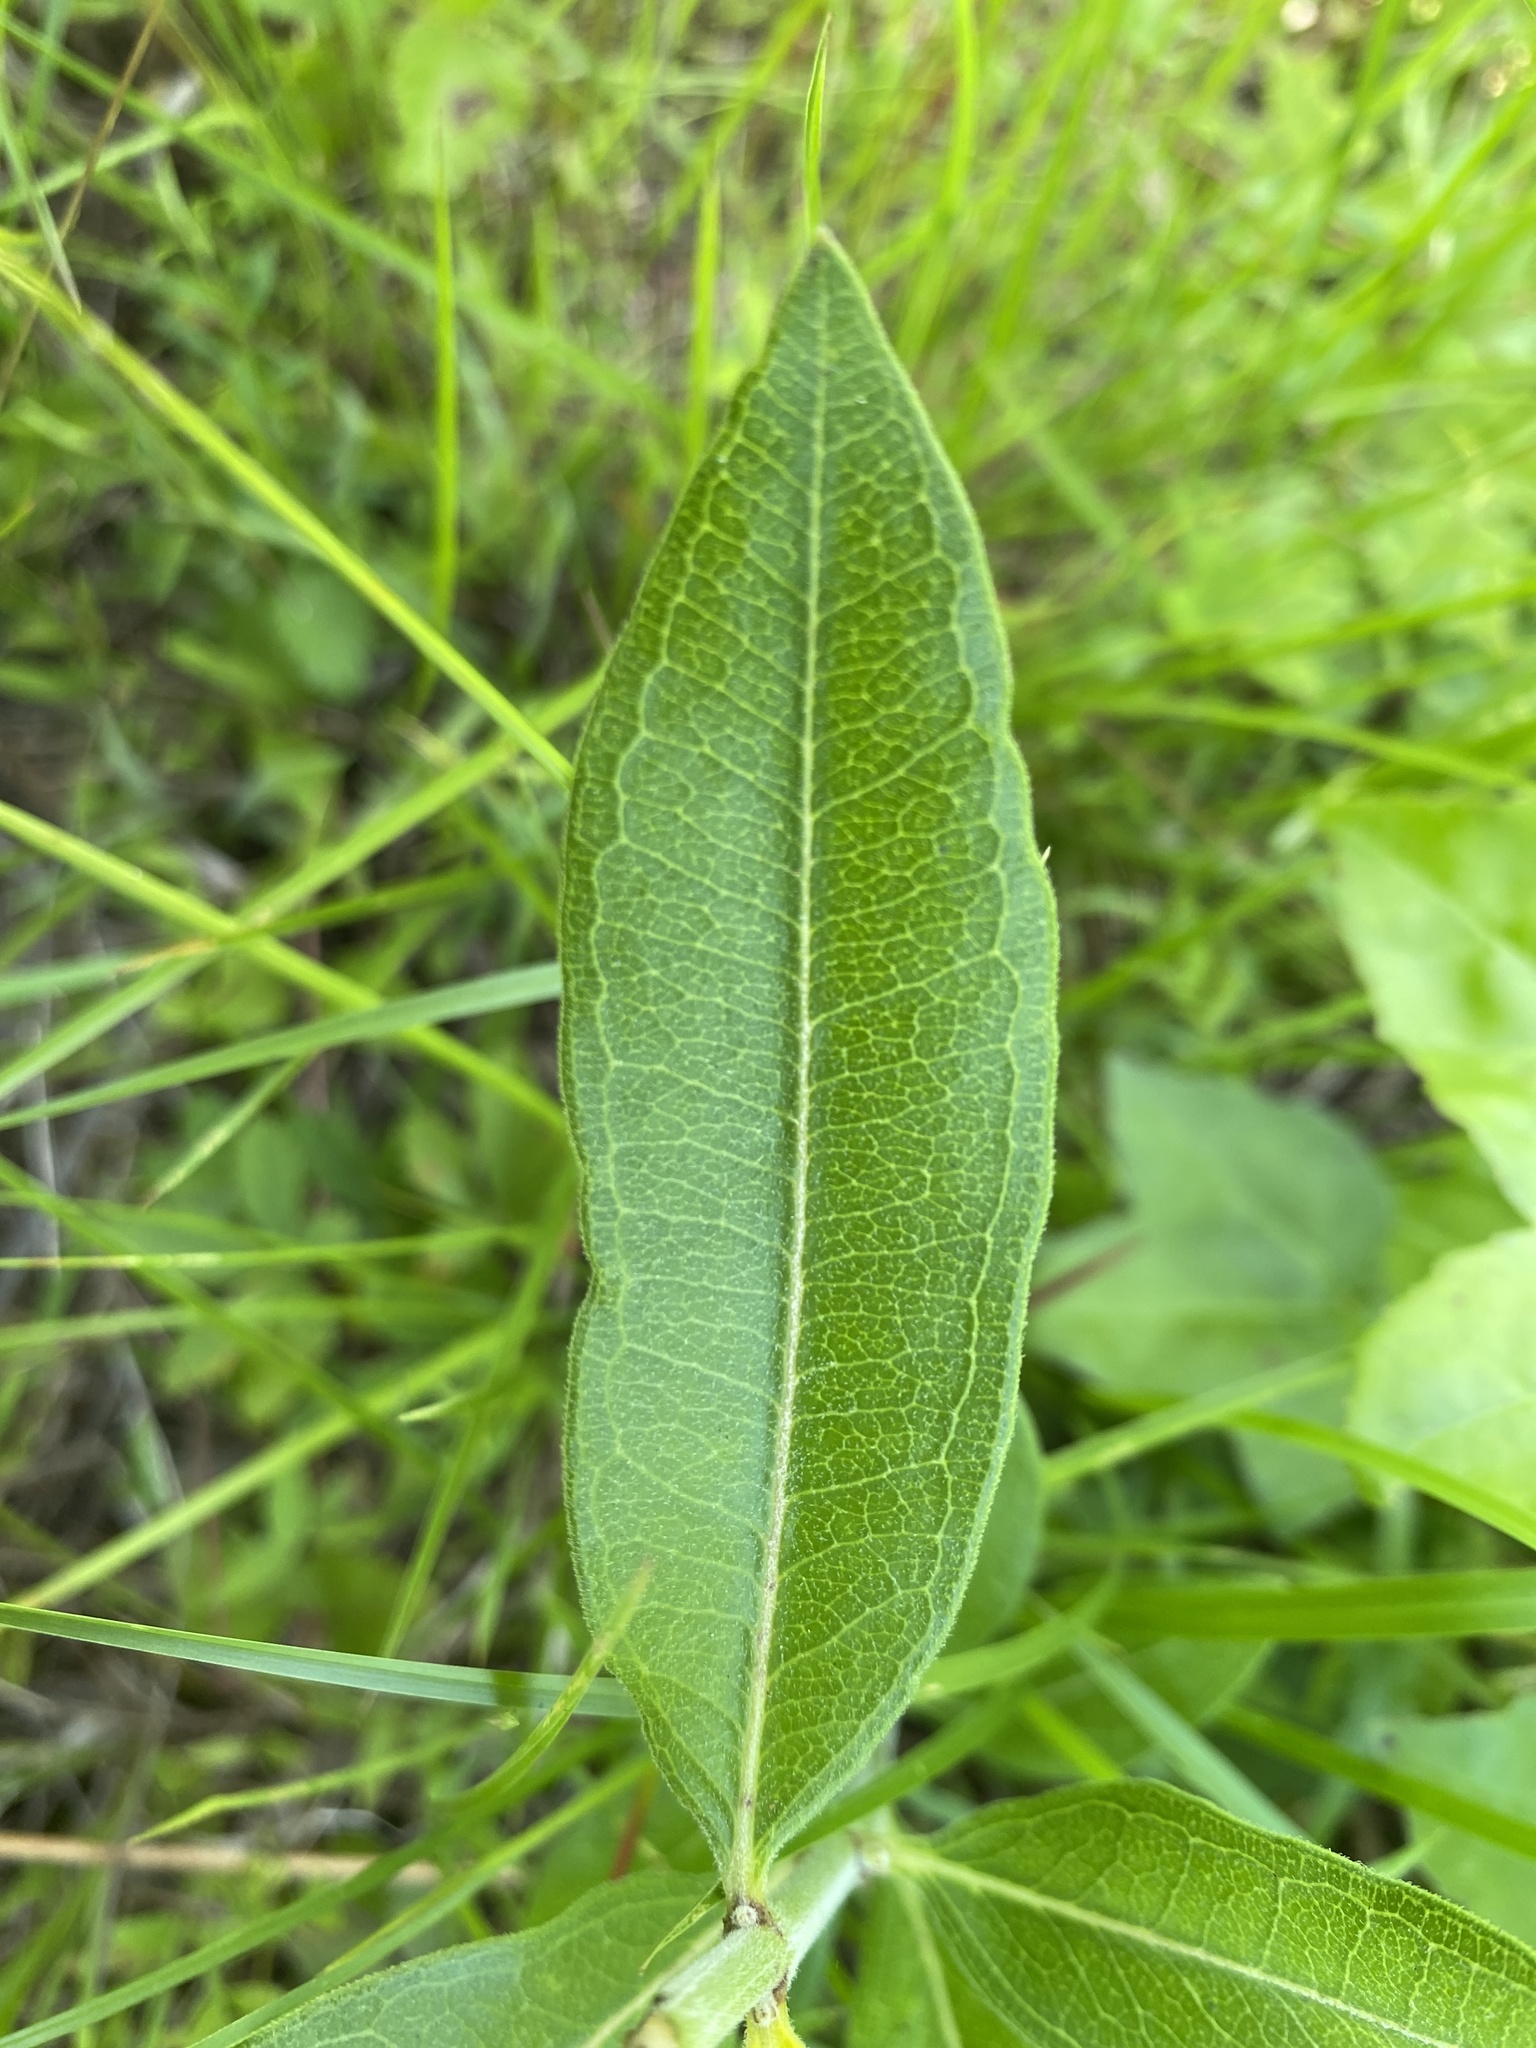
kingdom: Plantae
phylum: Tracheophyta
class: Magnoliopsida
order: Gentianales
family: Apocynaceae
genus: Asclepias
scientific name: Asclepias viridiflora
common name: Green comet milkweed
